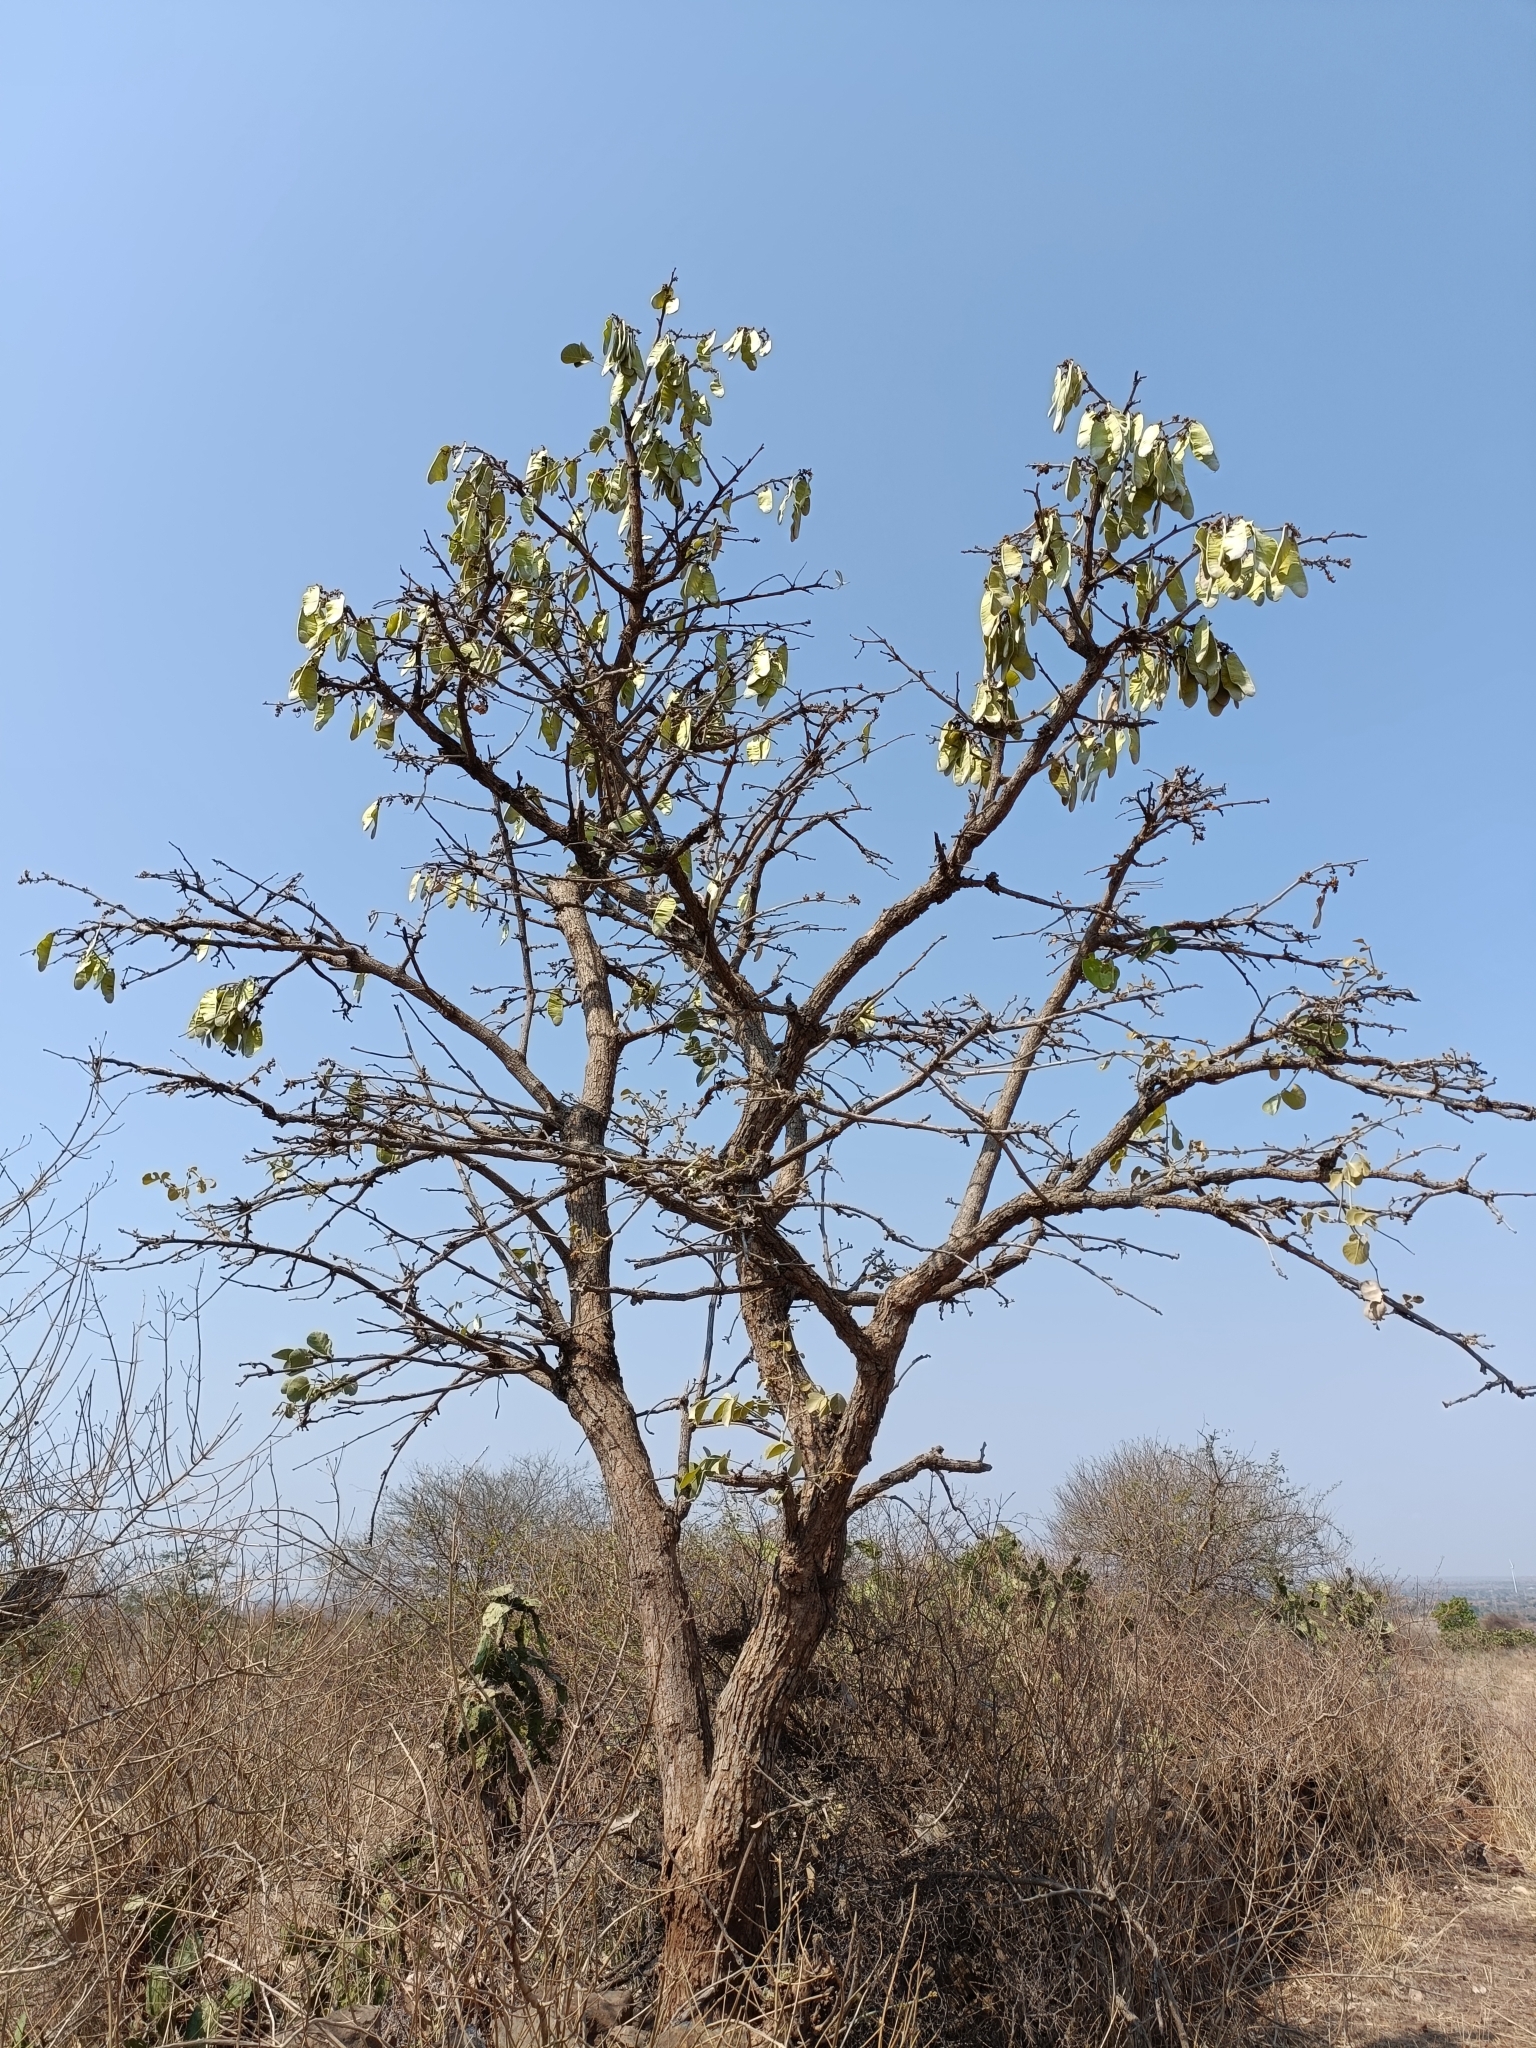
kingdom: Plantae
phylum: Tracheophyta
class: Magnoliopsida
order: Fabales
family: Fabaceae
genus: Butea
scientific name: Butea monosperma
